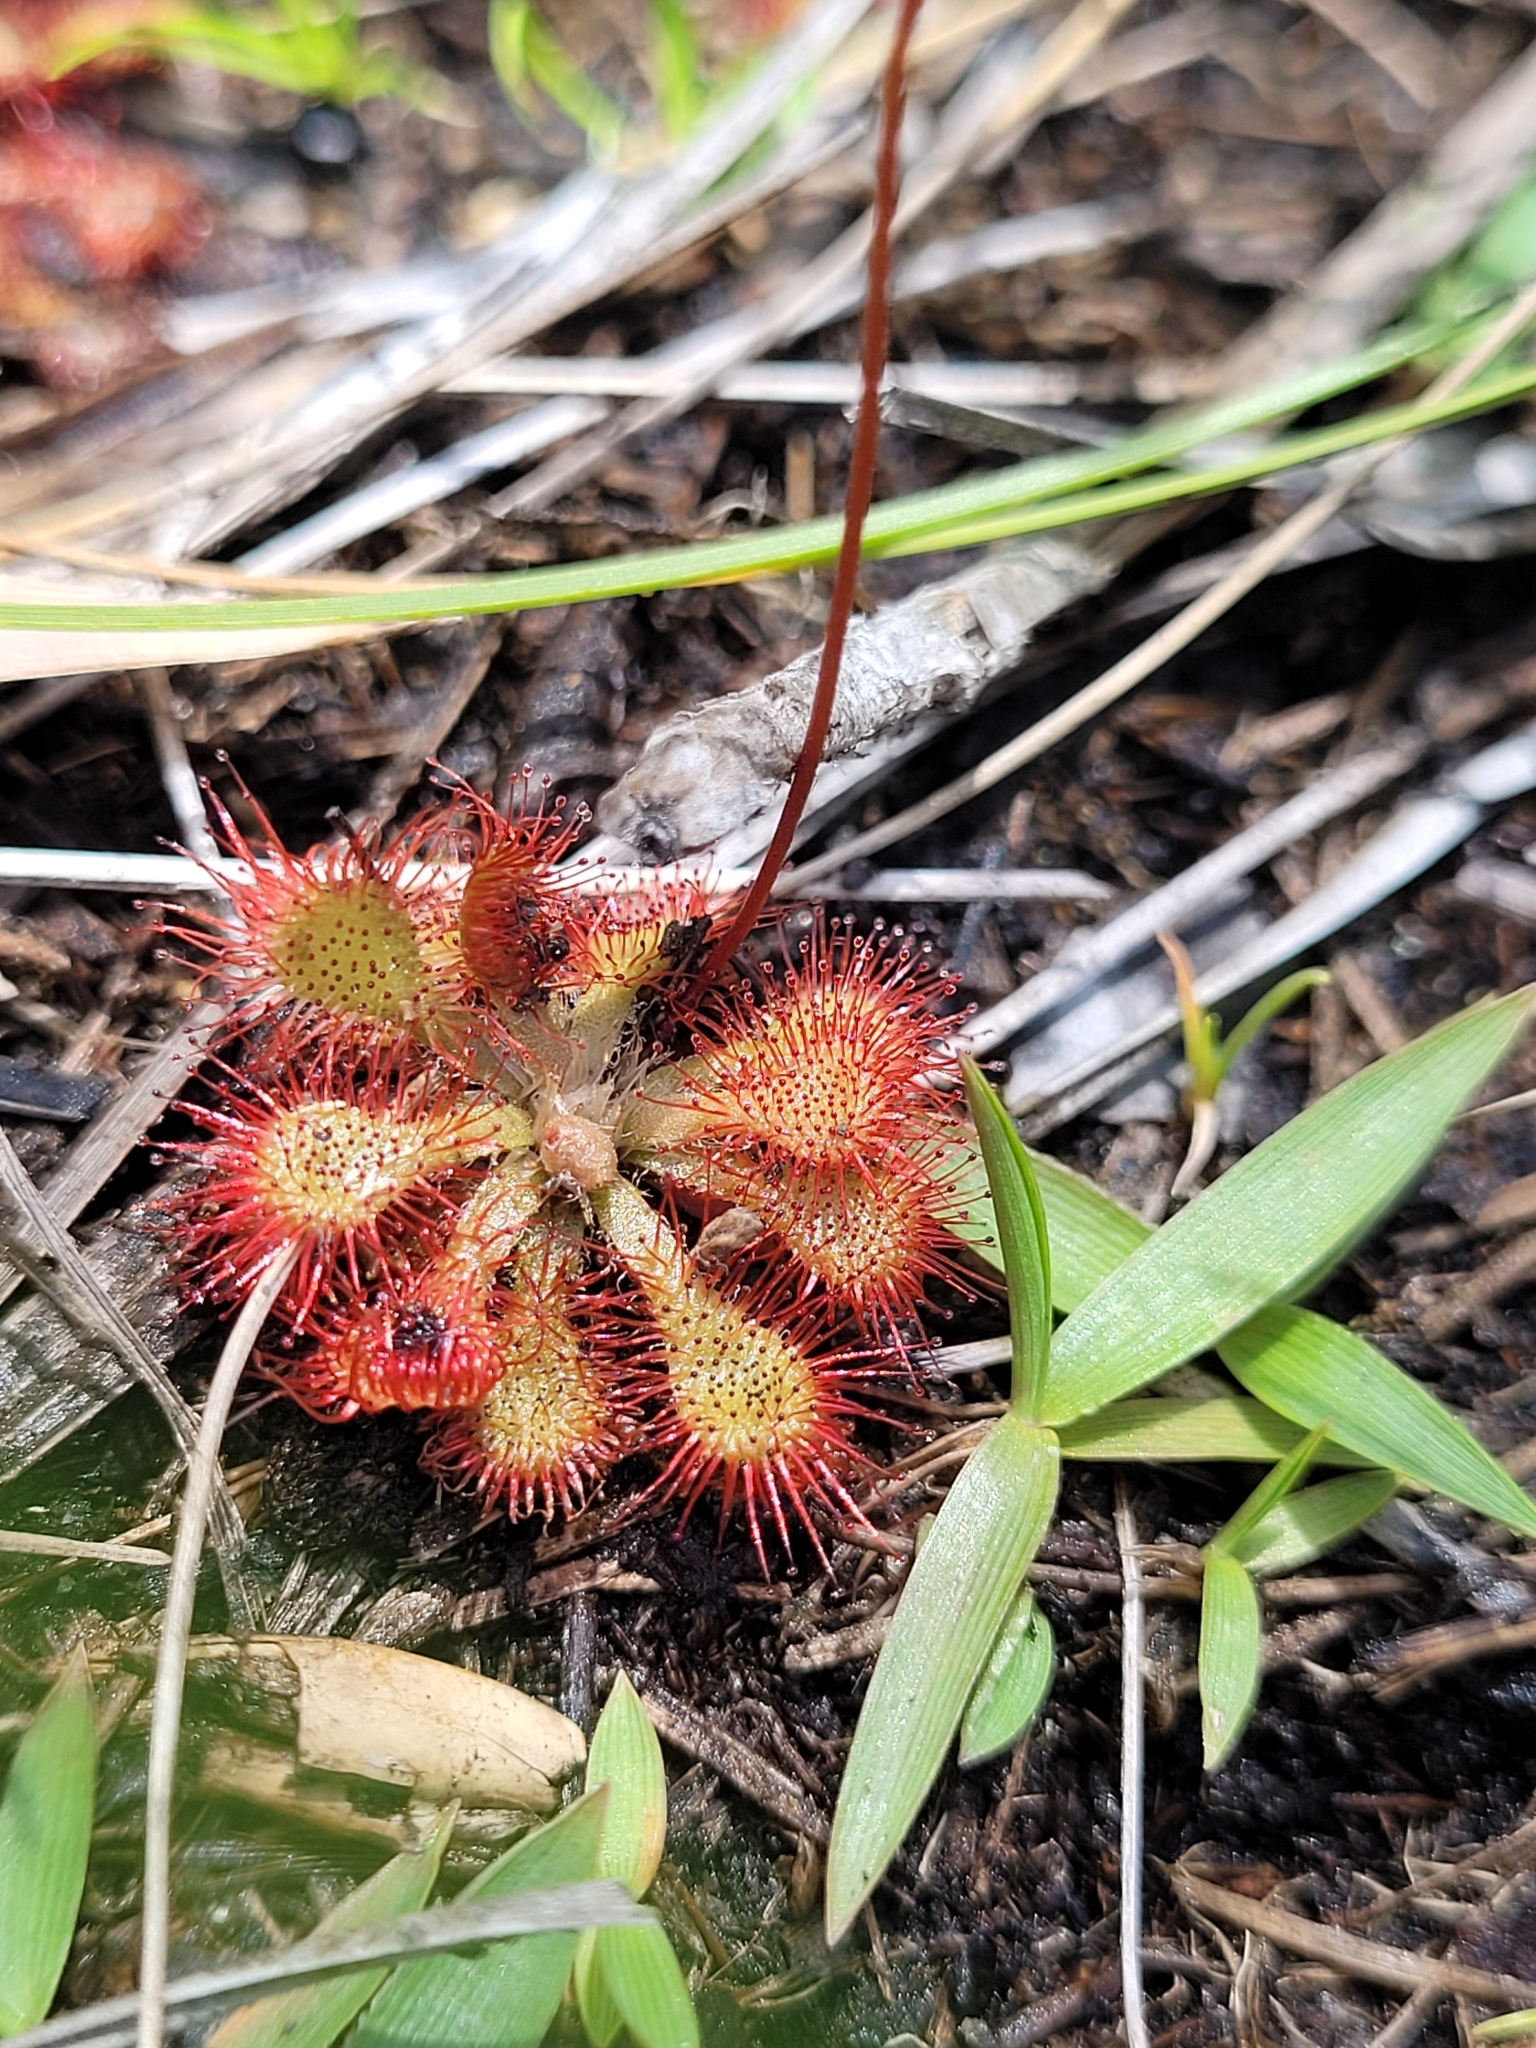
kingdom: Plantae
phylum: Tracheophyta
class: Magnoliopsida
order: Caryophyllales
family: Droseraceae
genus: Drosera
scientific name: Drosera capillaris
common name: Pink sundew
